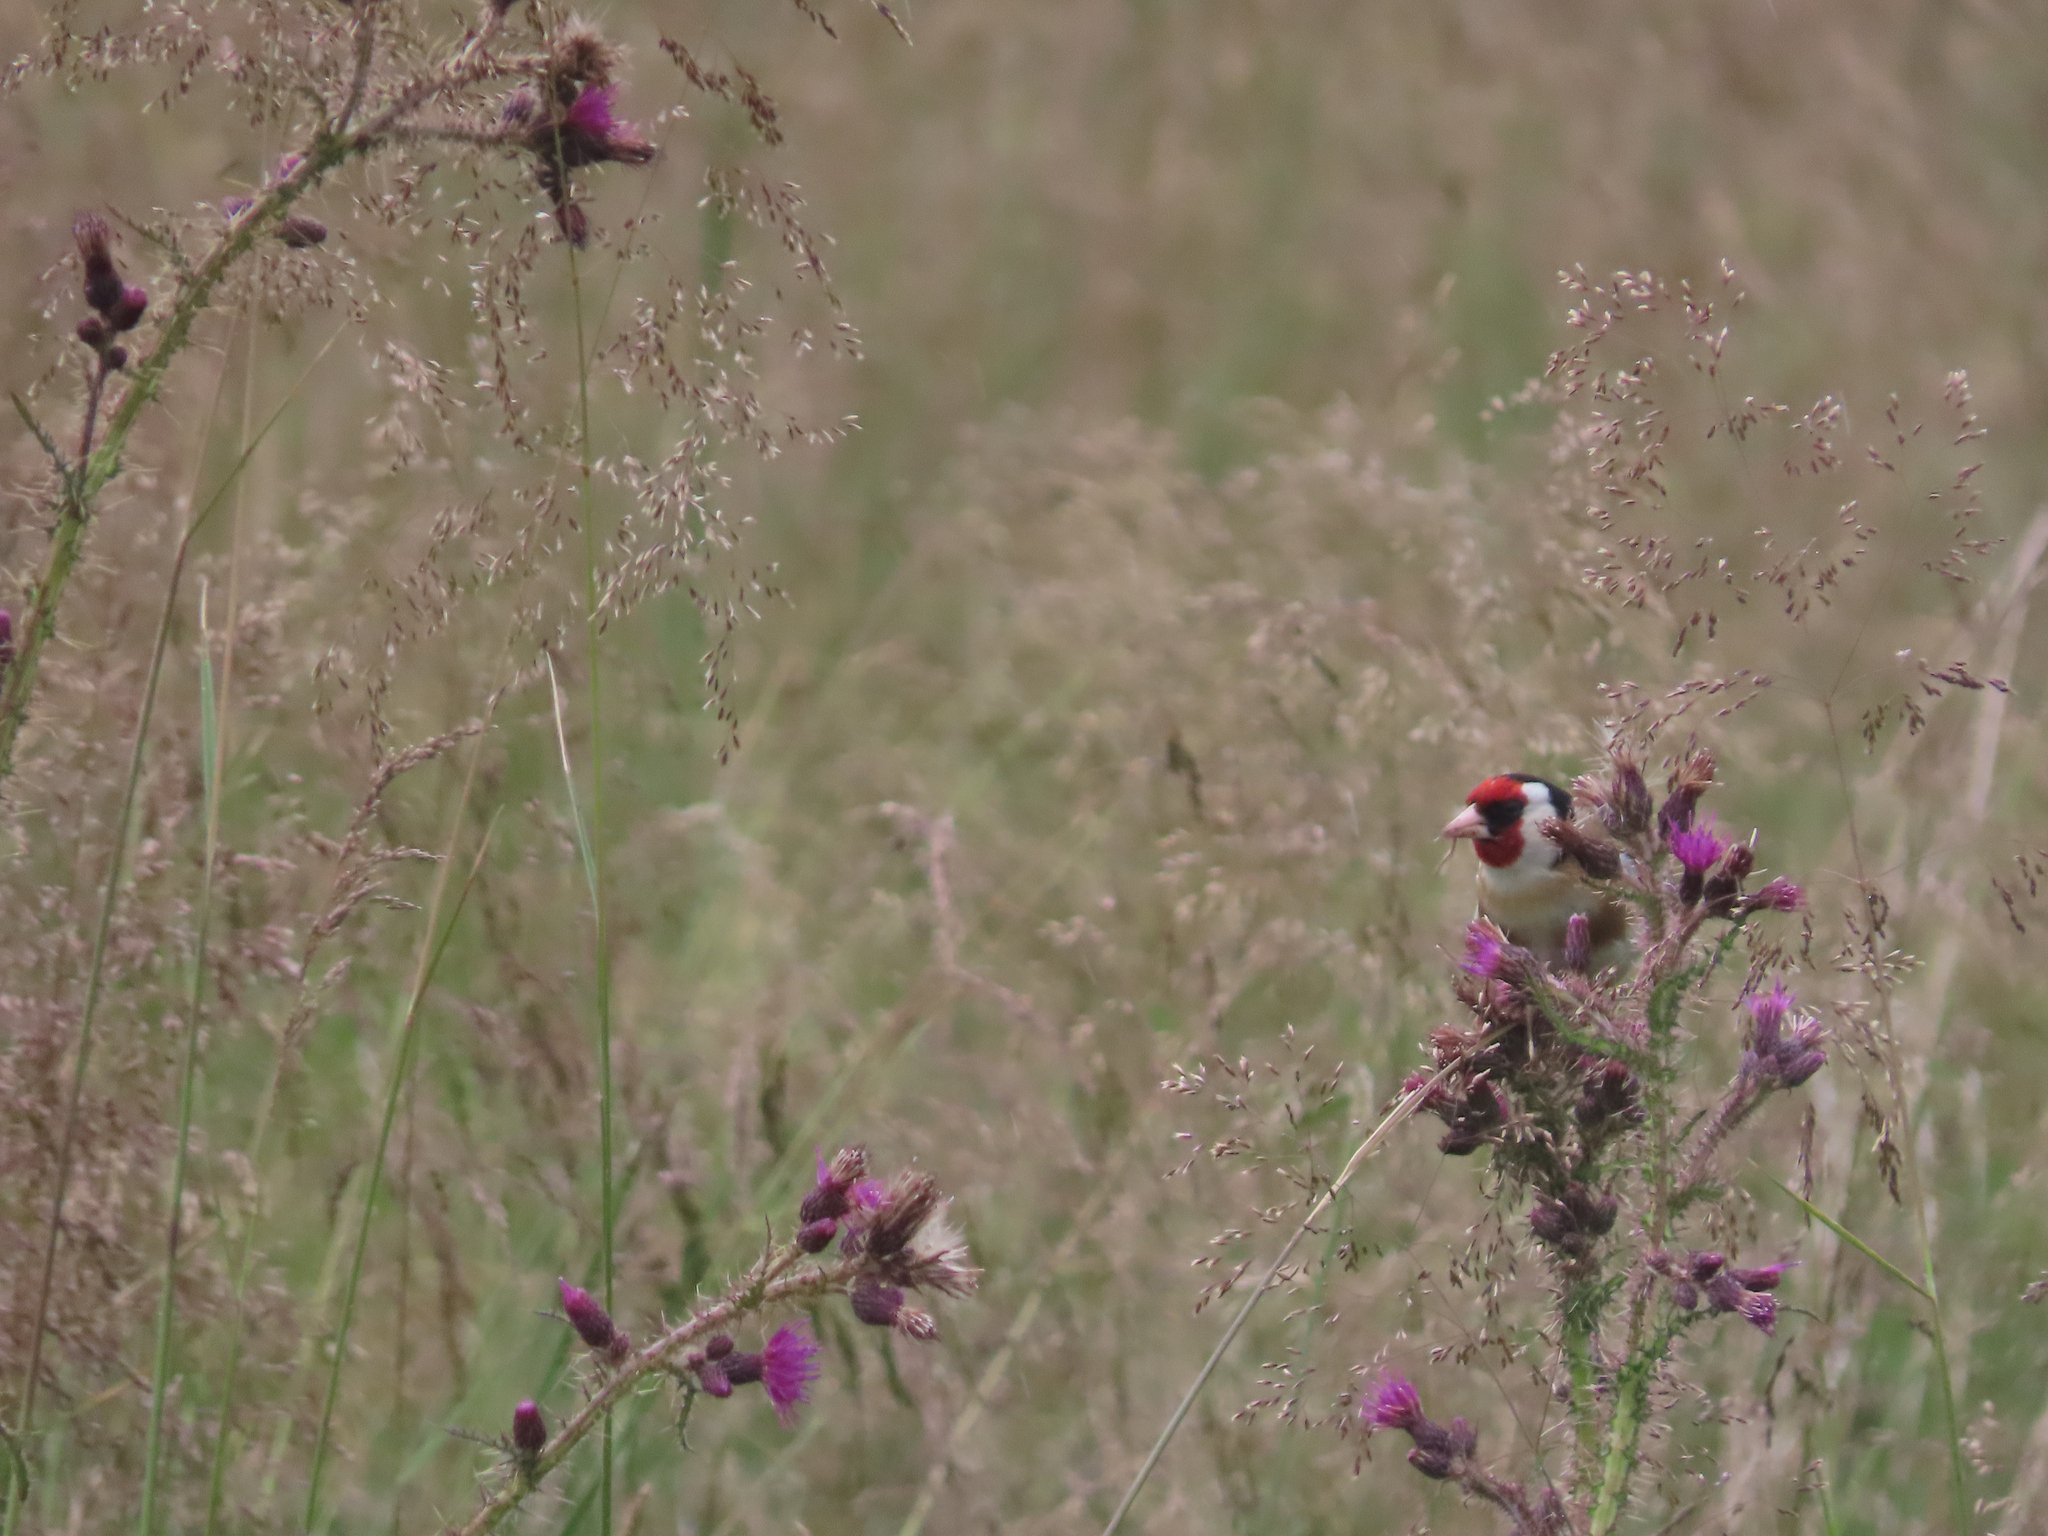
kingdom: Animalia
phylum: Chordata
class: Aves
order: Passeriformes
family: Fringillidae
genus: Carduelis
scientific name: Carduelis carduelis
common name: European goldfinch
